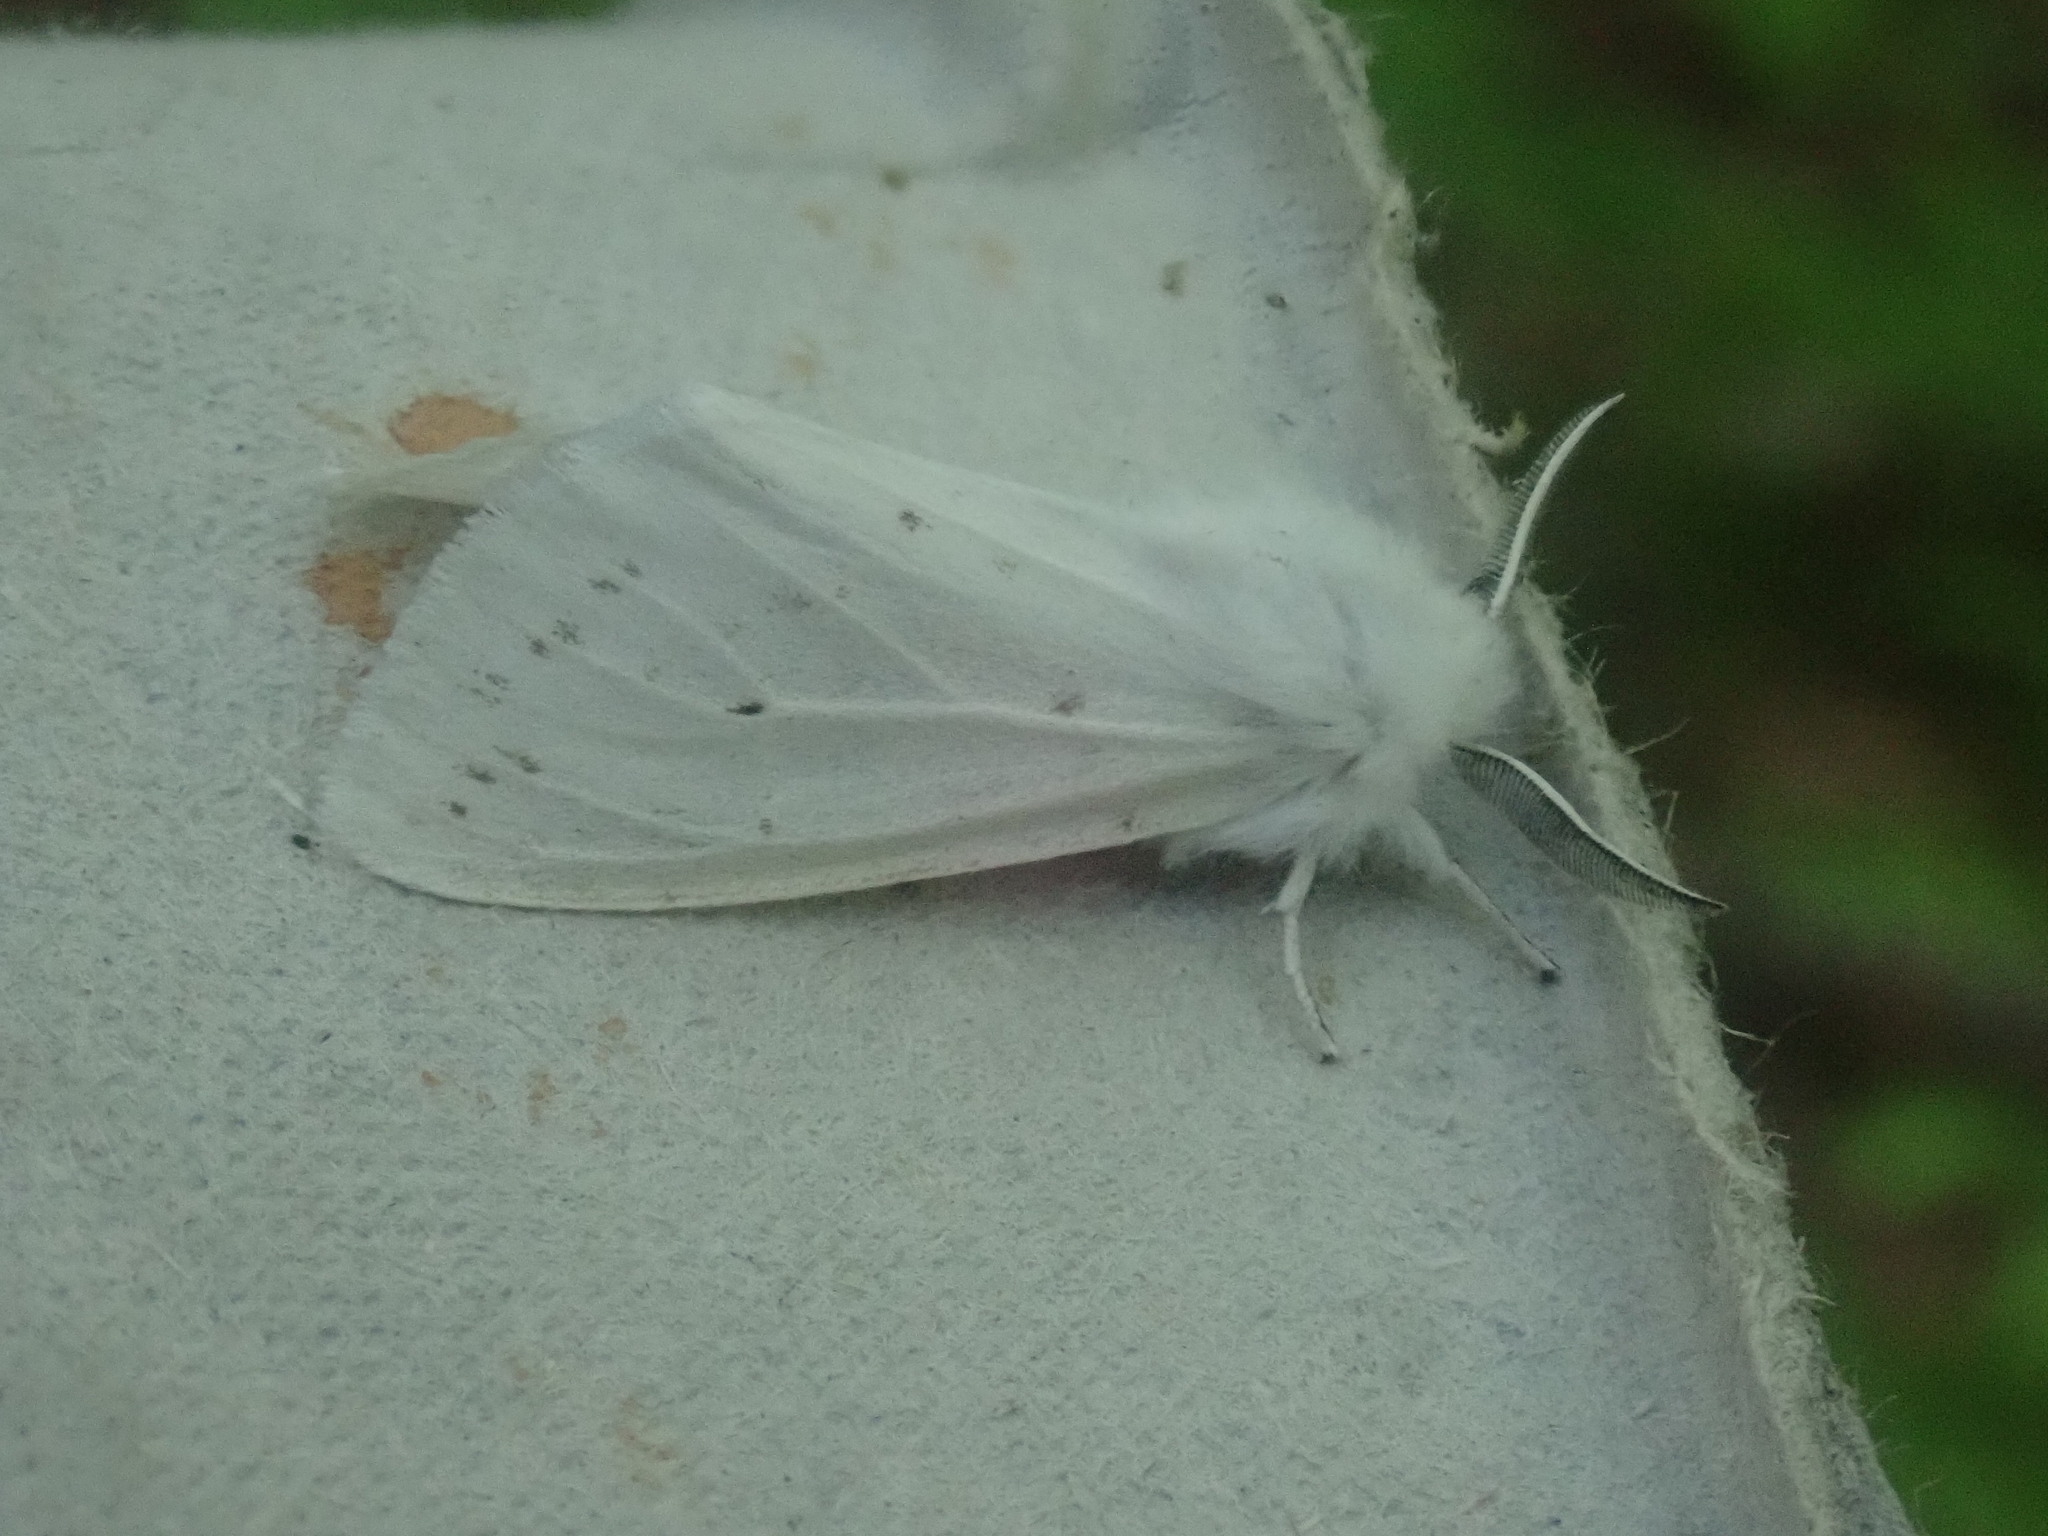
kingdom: Animalia
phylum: Arthropoda
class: Insecta
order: Lepidoptera
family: Erebidae
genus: Spilosoma
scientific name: Spilosoma
